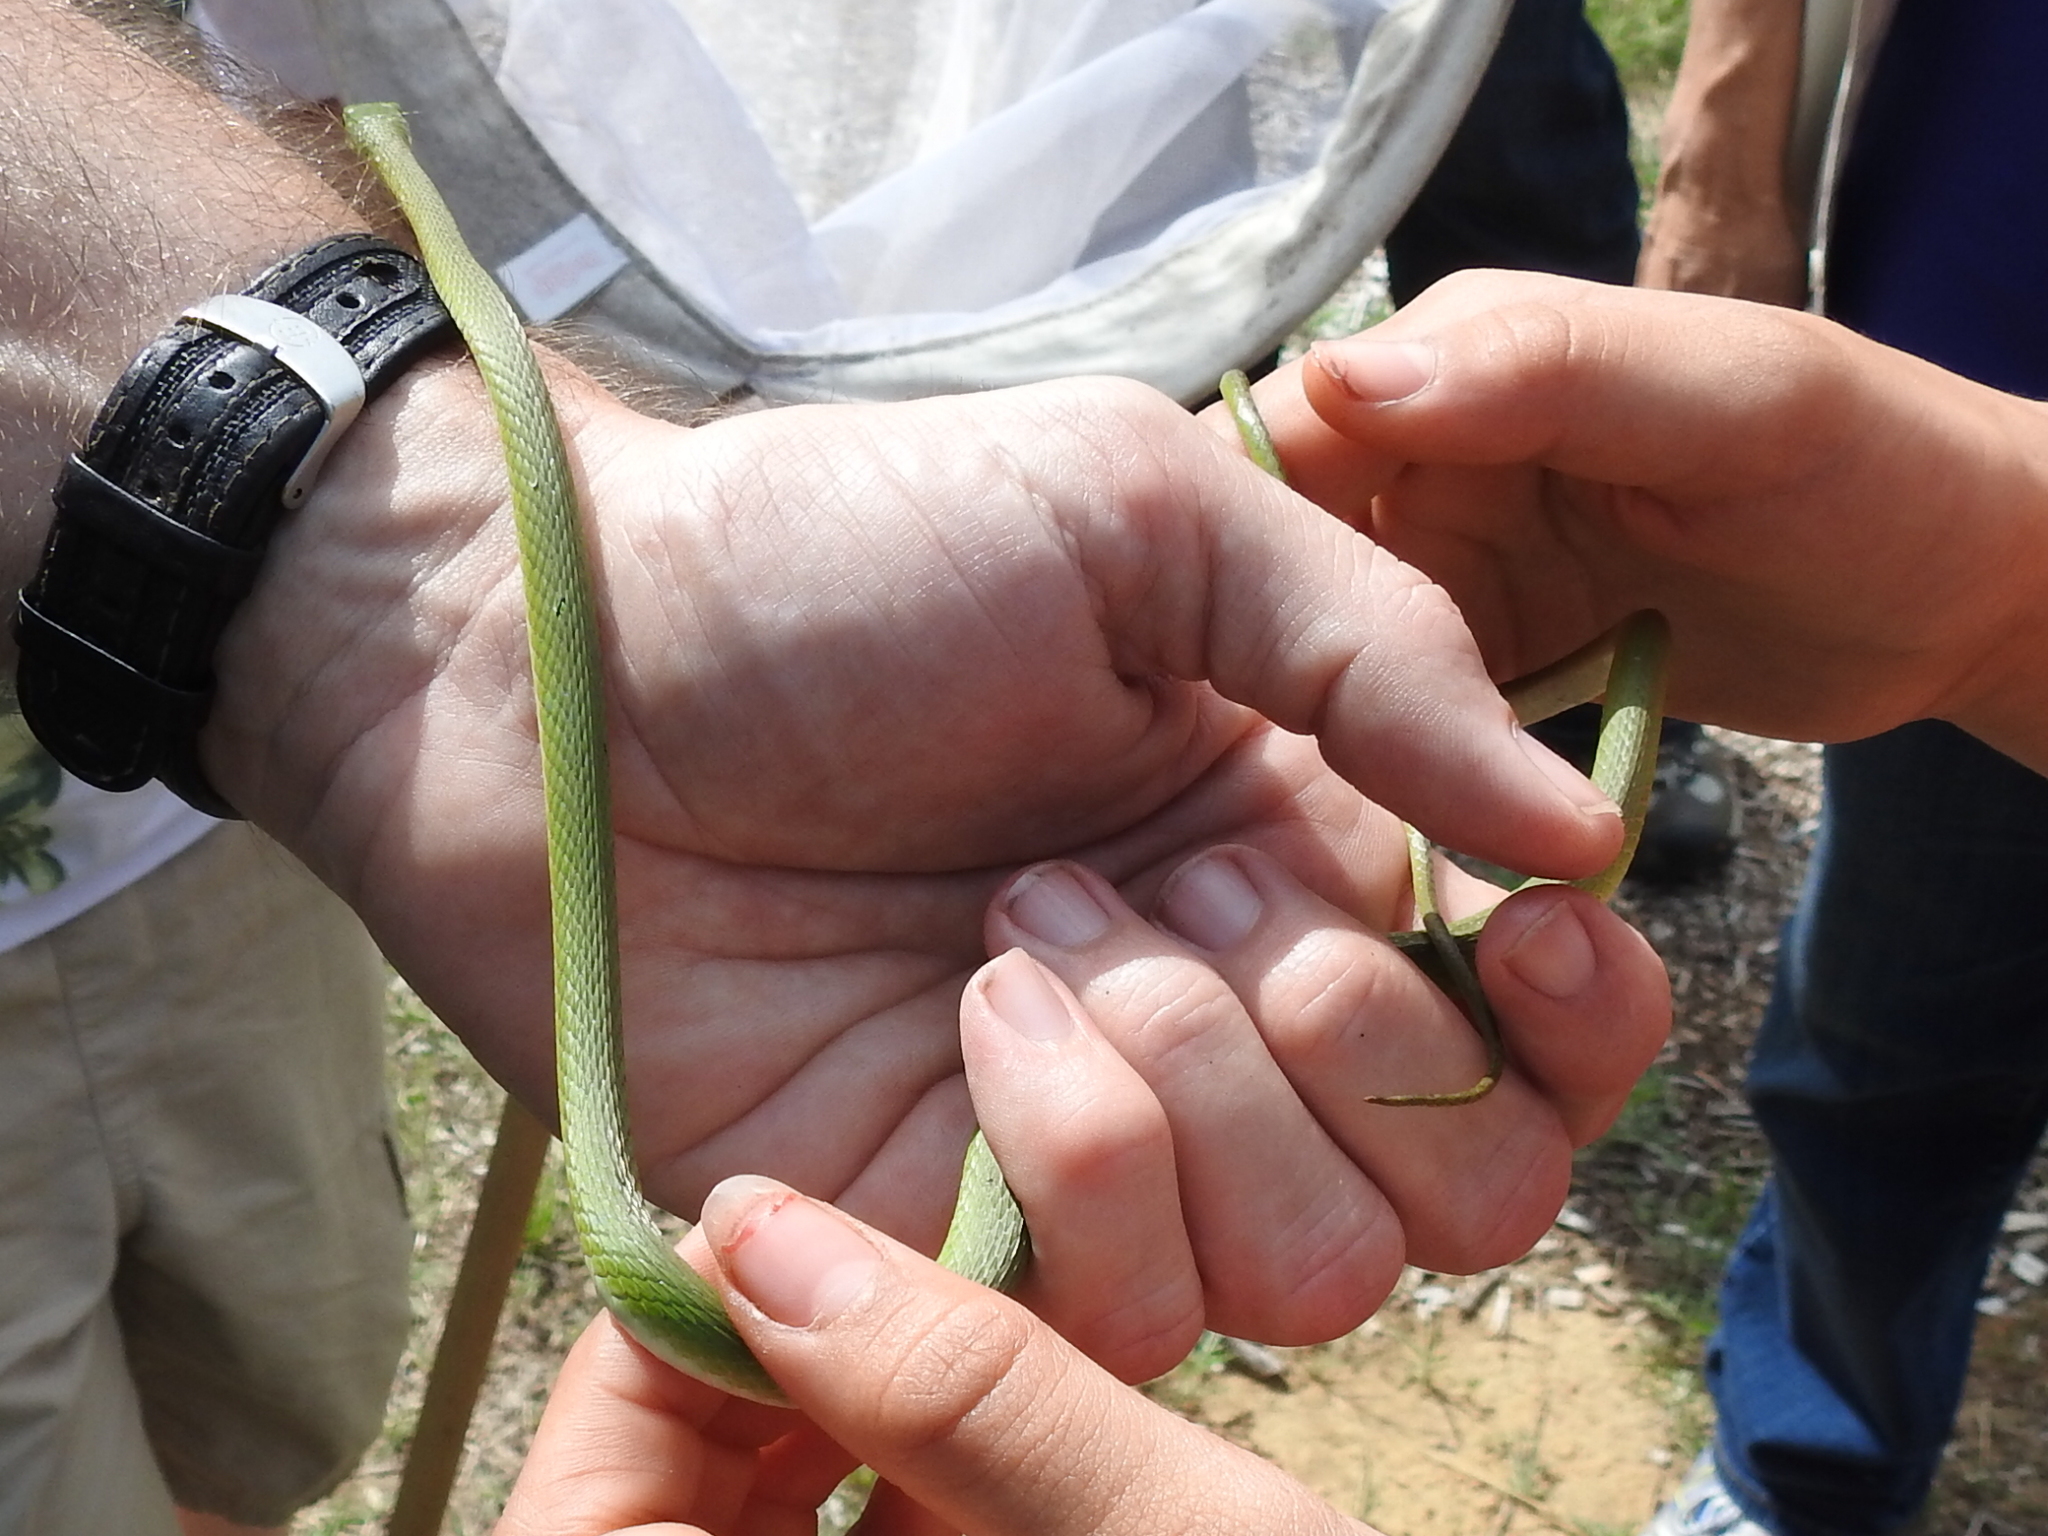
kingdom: Animalia
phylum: Chordata
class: Squamata
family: Colubridae
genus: Opheodrys
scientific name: Opheodrys aestivus
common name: Rough greensnake
